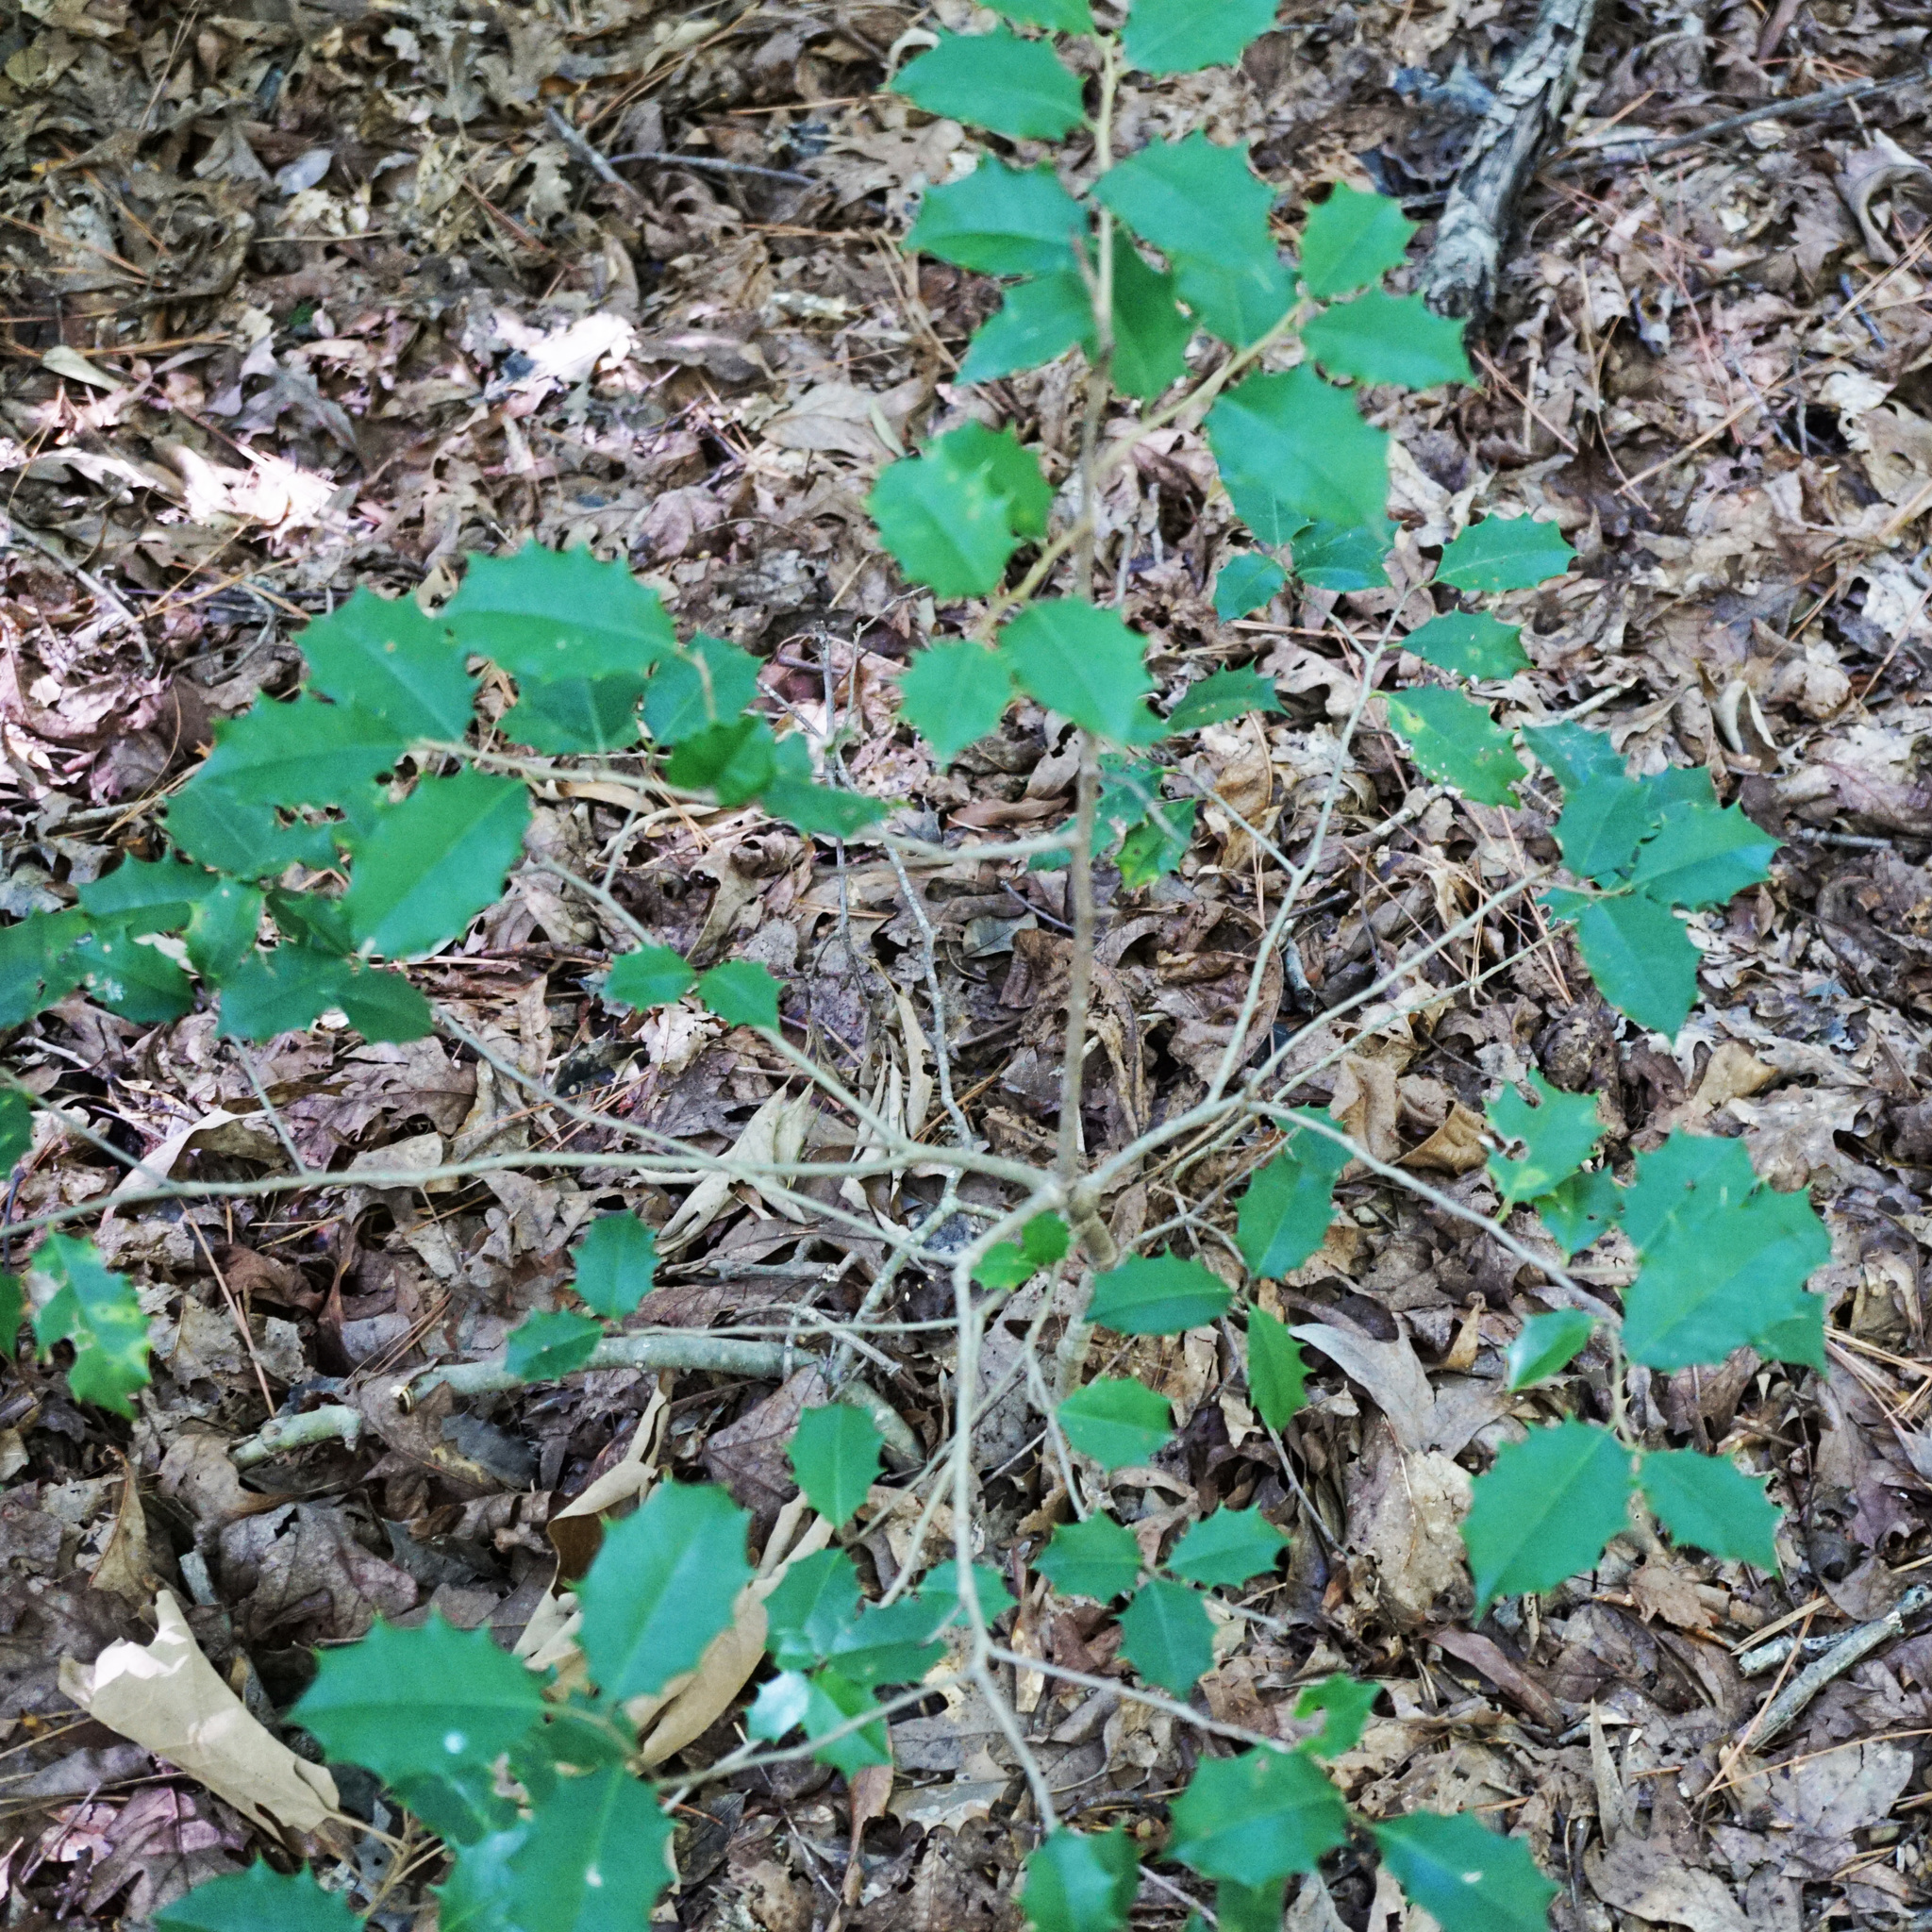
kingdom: Plantae
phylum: Tracheophyta
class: Magnoliopsida
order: Aquifoliales
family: Aquifoliaceae
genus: Ilex
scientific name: Ilex opaca
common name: American holly
